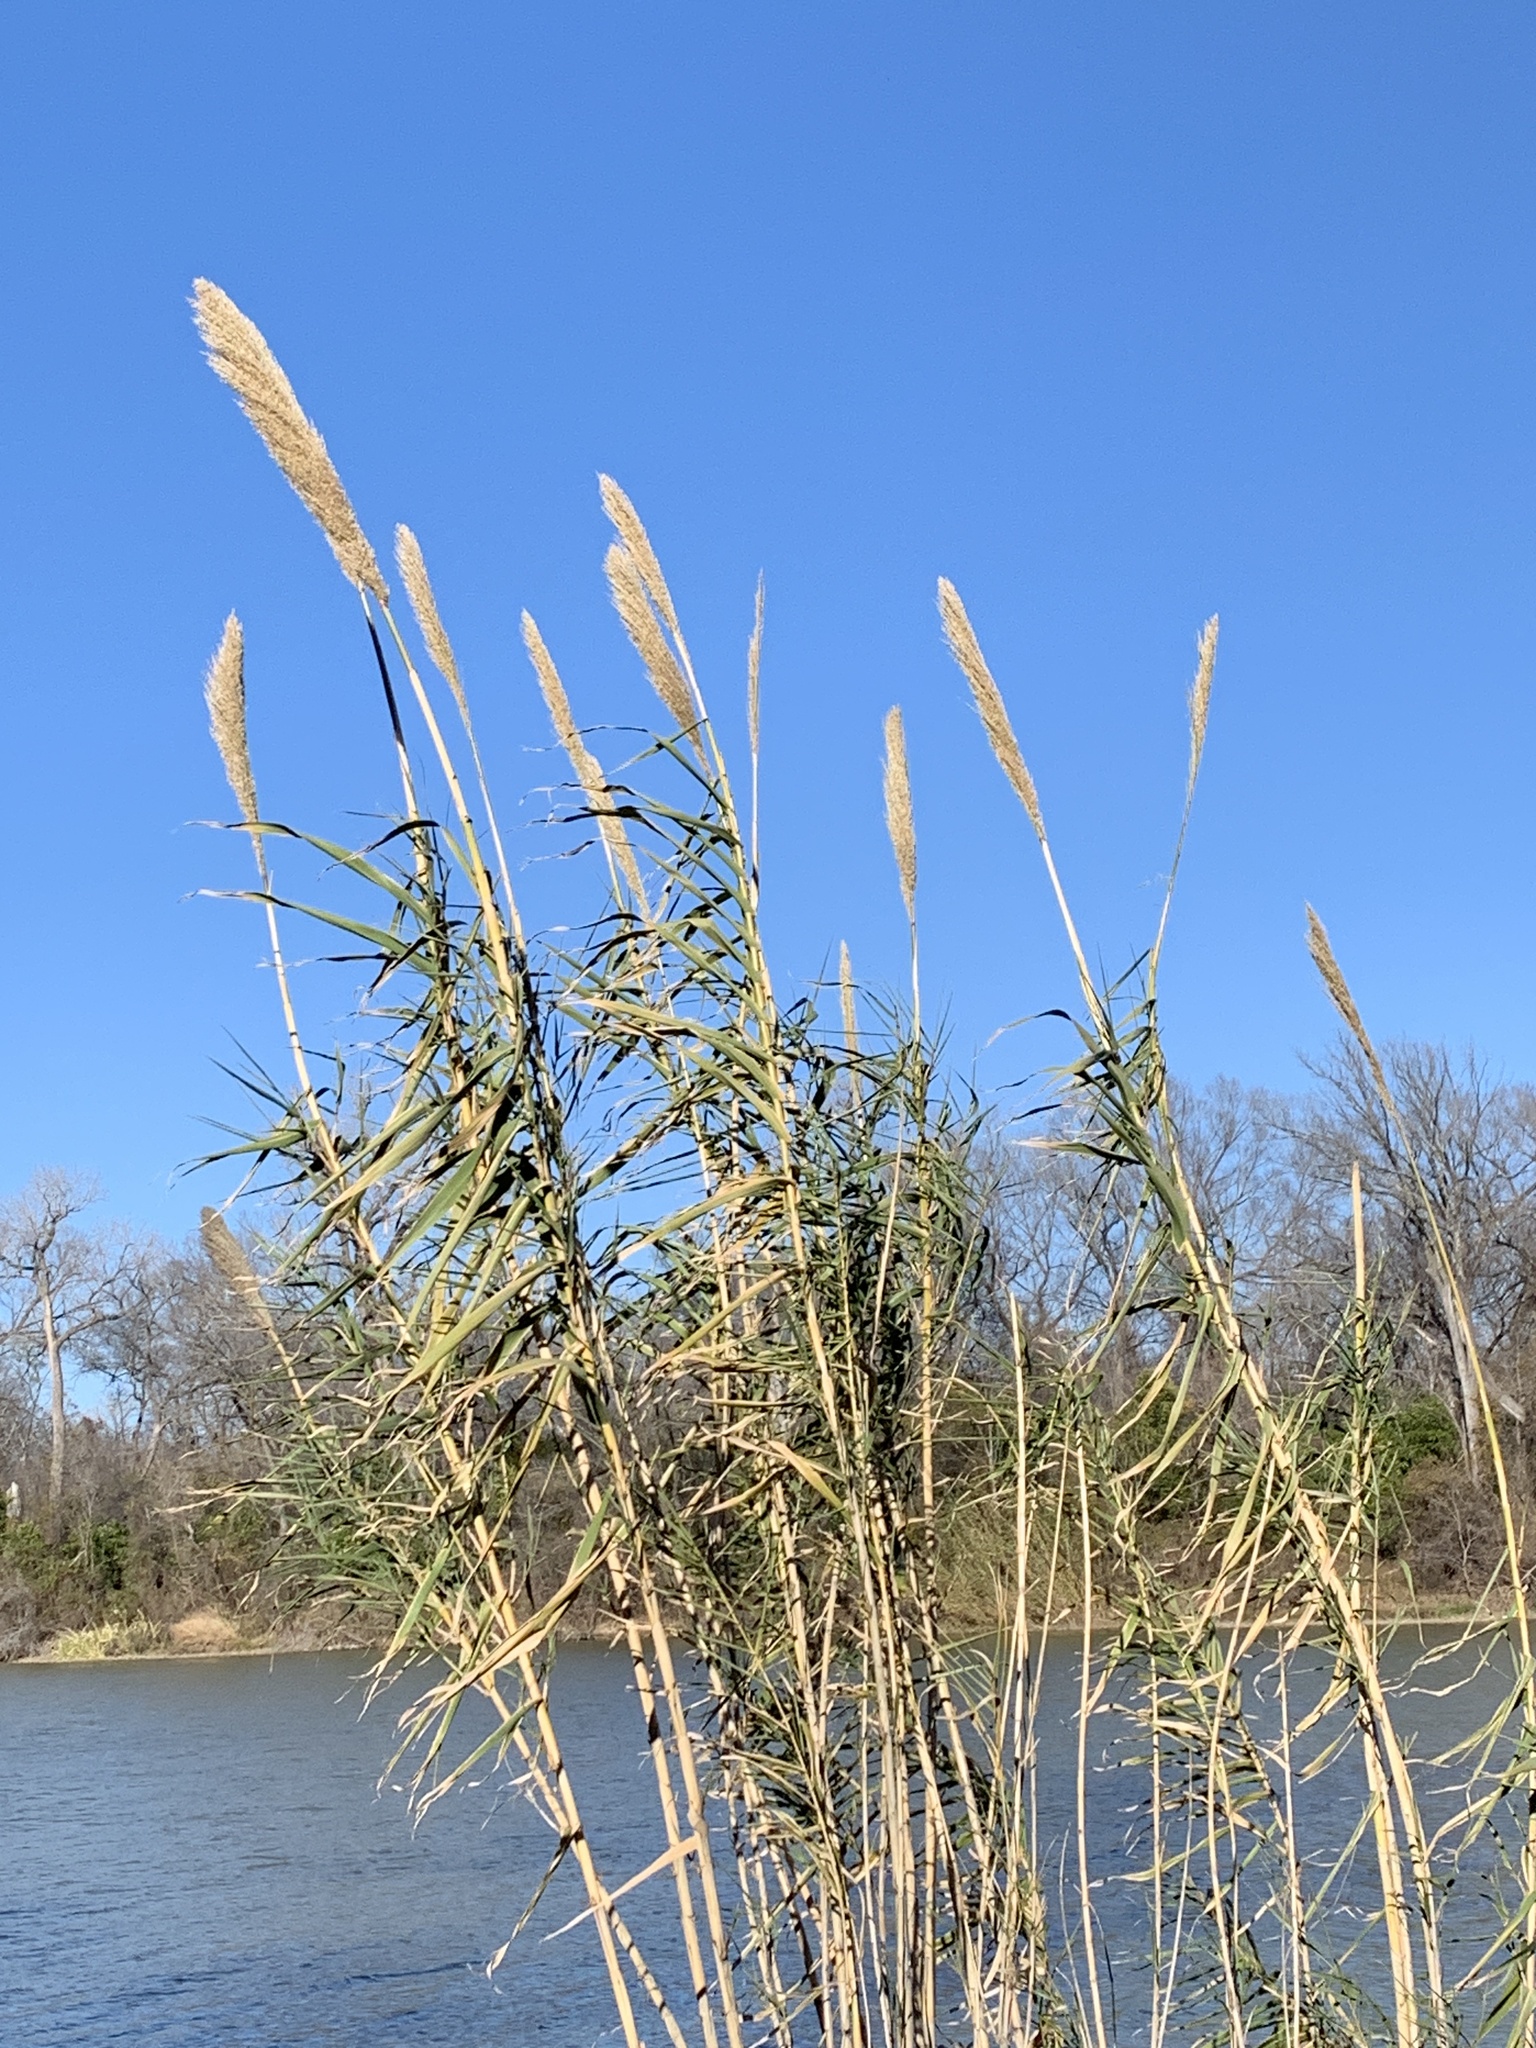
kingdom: Plantae
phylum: Tracheophyta
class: Liliopsida
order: Poales
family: Poaceae
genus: Arundo
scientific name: Arundo donax
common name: Giant reed
